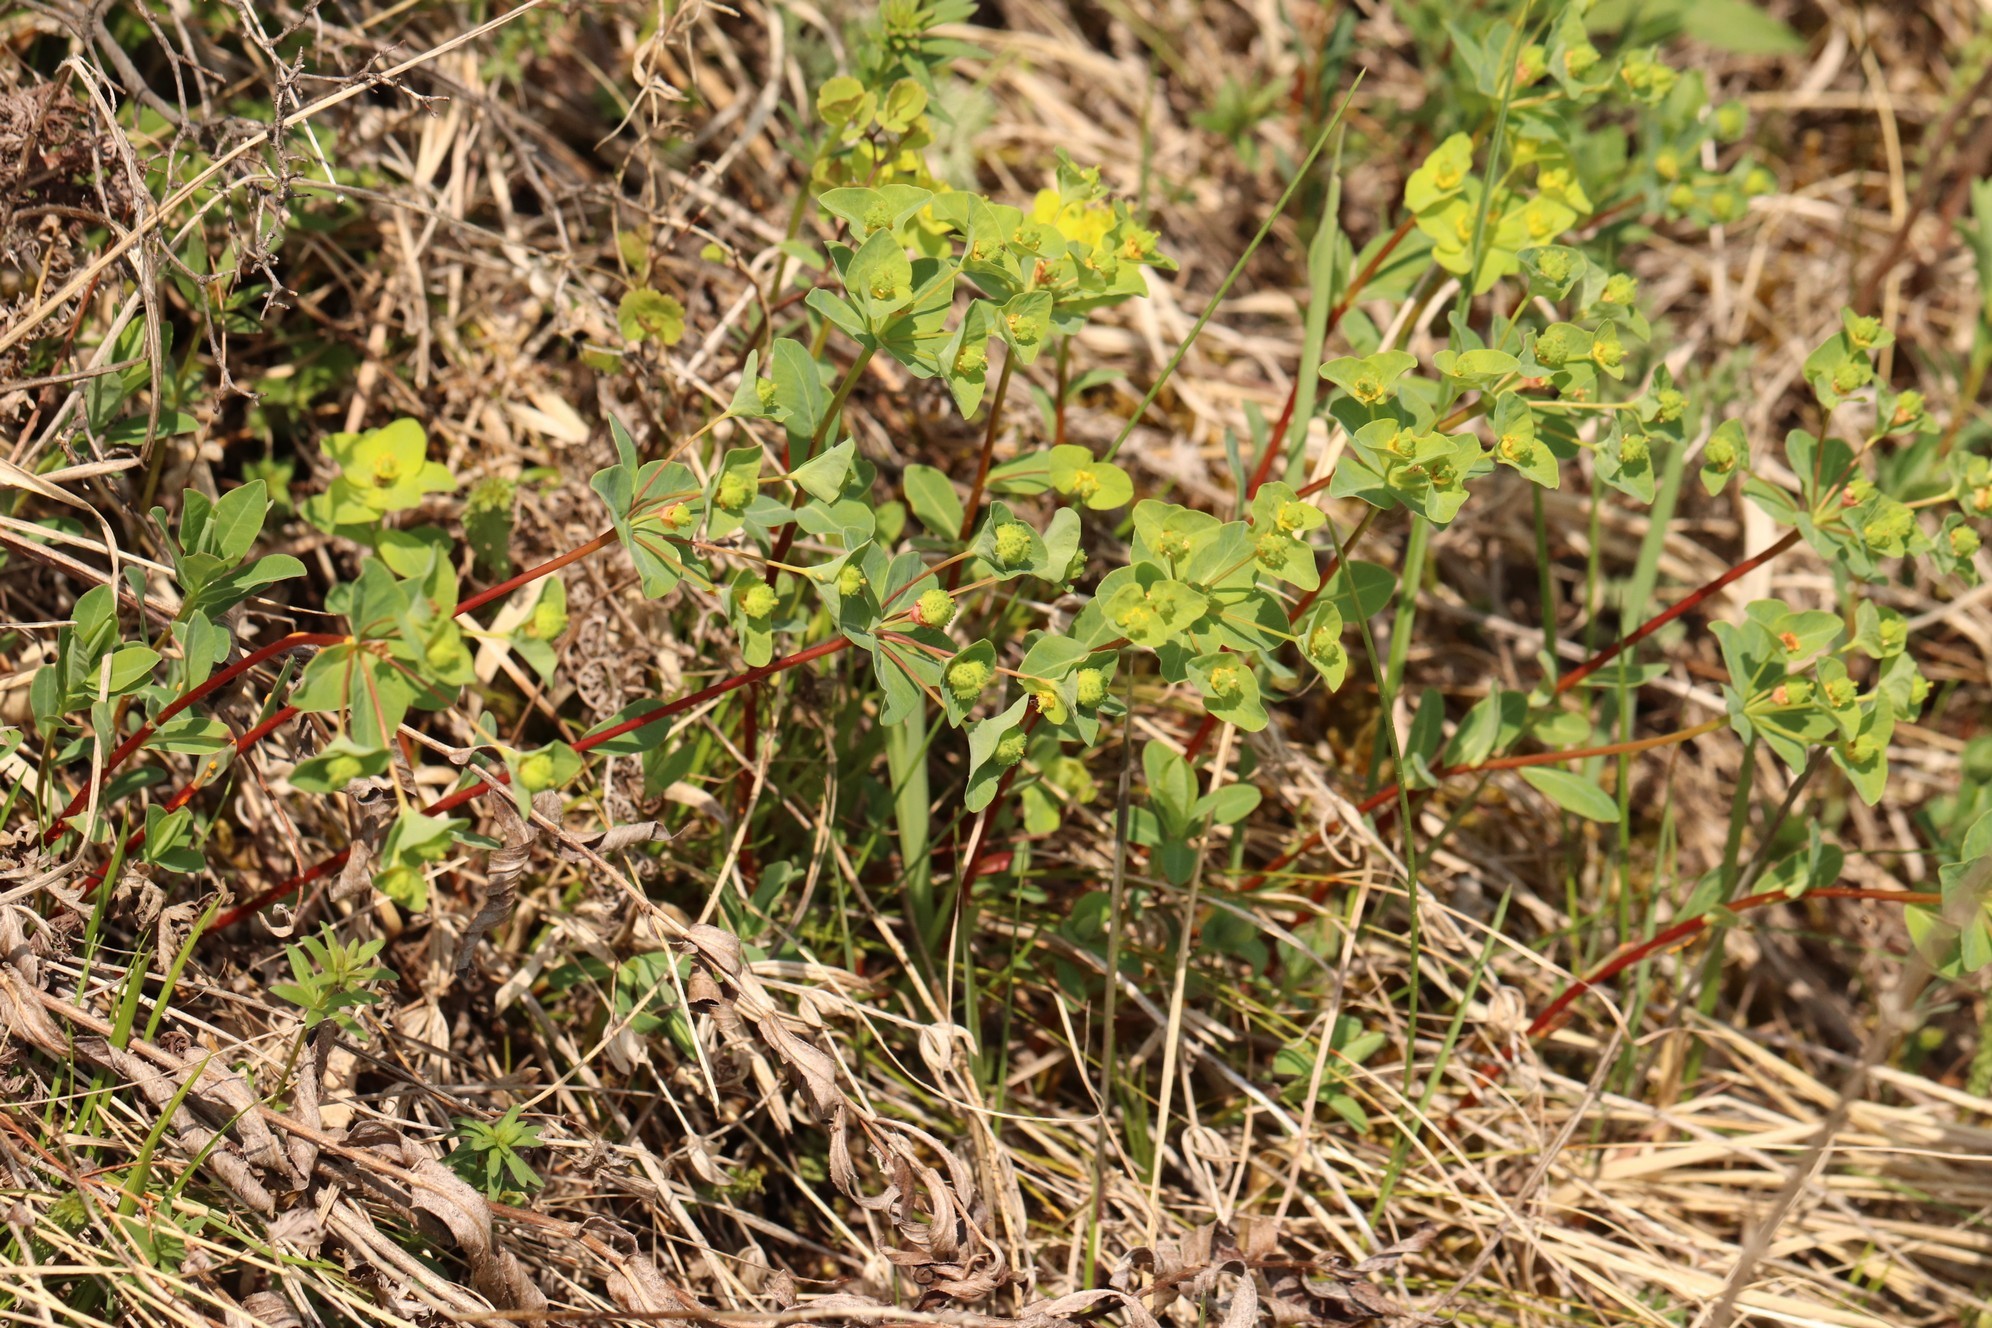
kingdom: Plantae
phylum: Tracheophyta
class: Magnoliopsida
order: Malpighiales
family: Euphorbiaceae
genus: Euphorbia
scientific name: Euphorbia altaica
